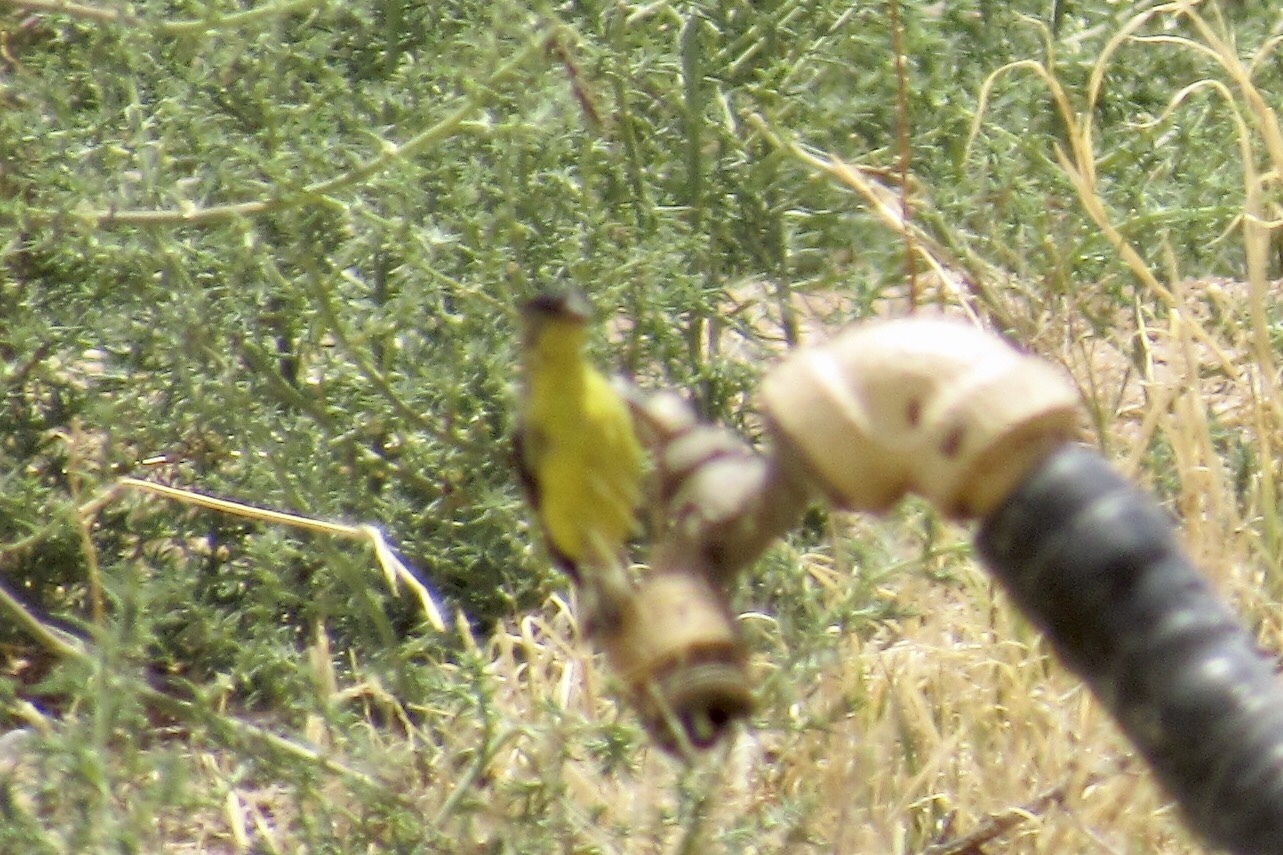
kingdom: Animalia
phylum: Chordata
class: Aves
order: Passeriformes
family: Fringillidae
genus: Spinus
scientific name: Spinus psaltria
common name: Lesser goldfinch
